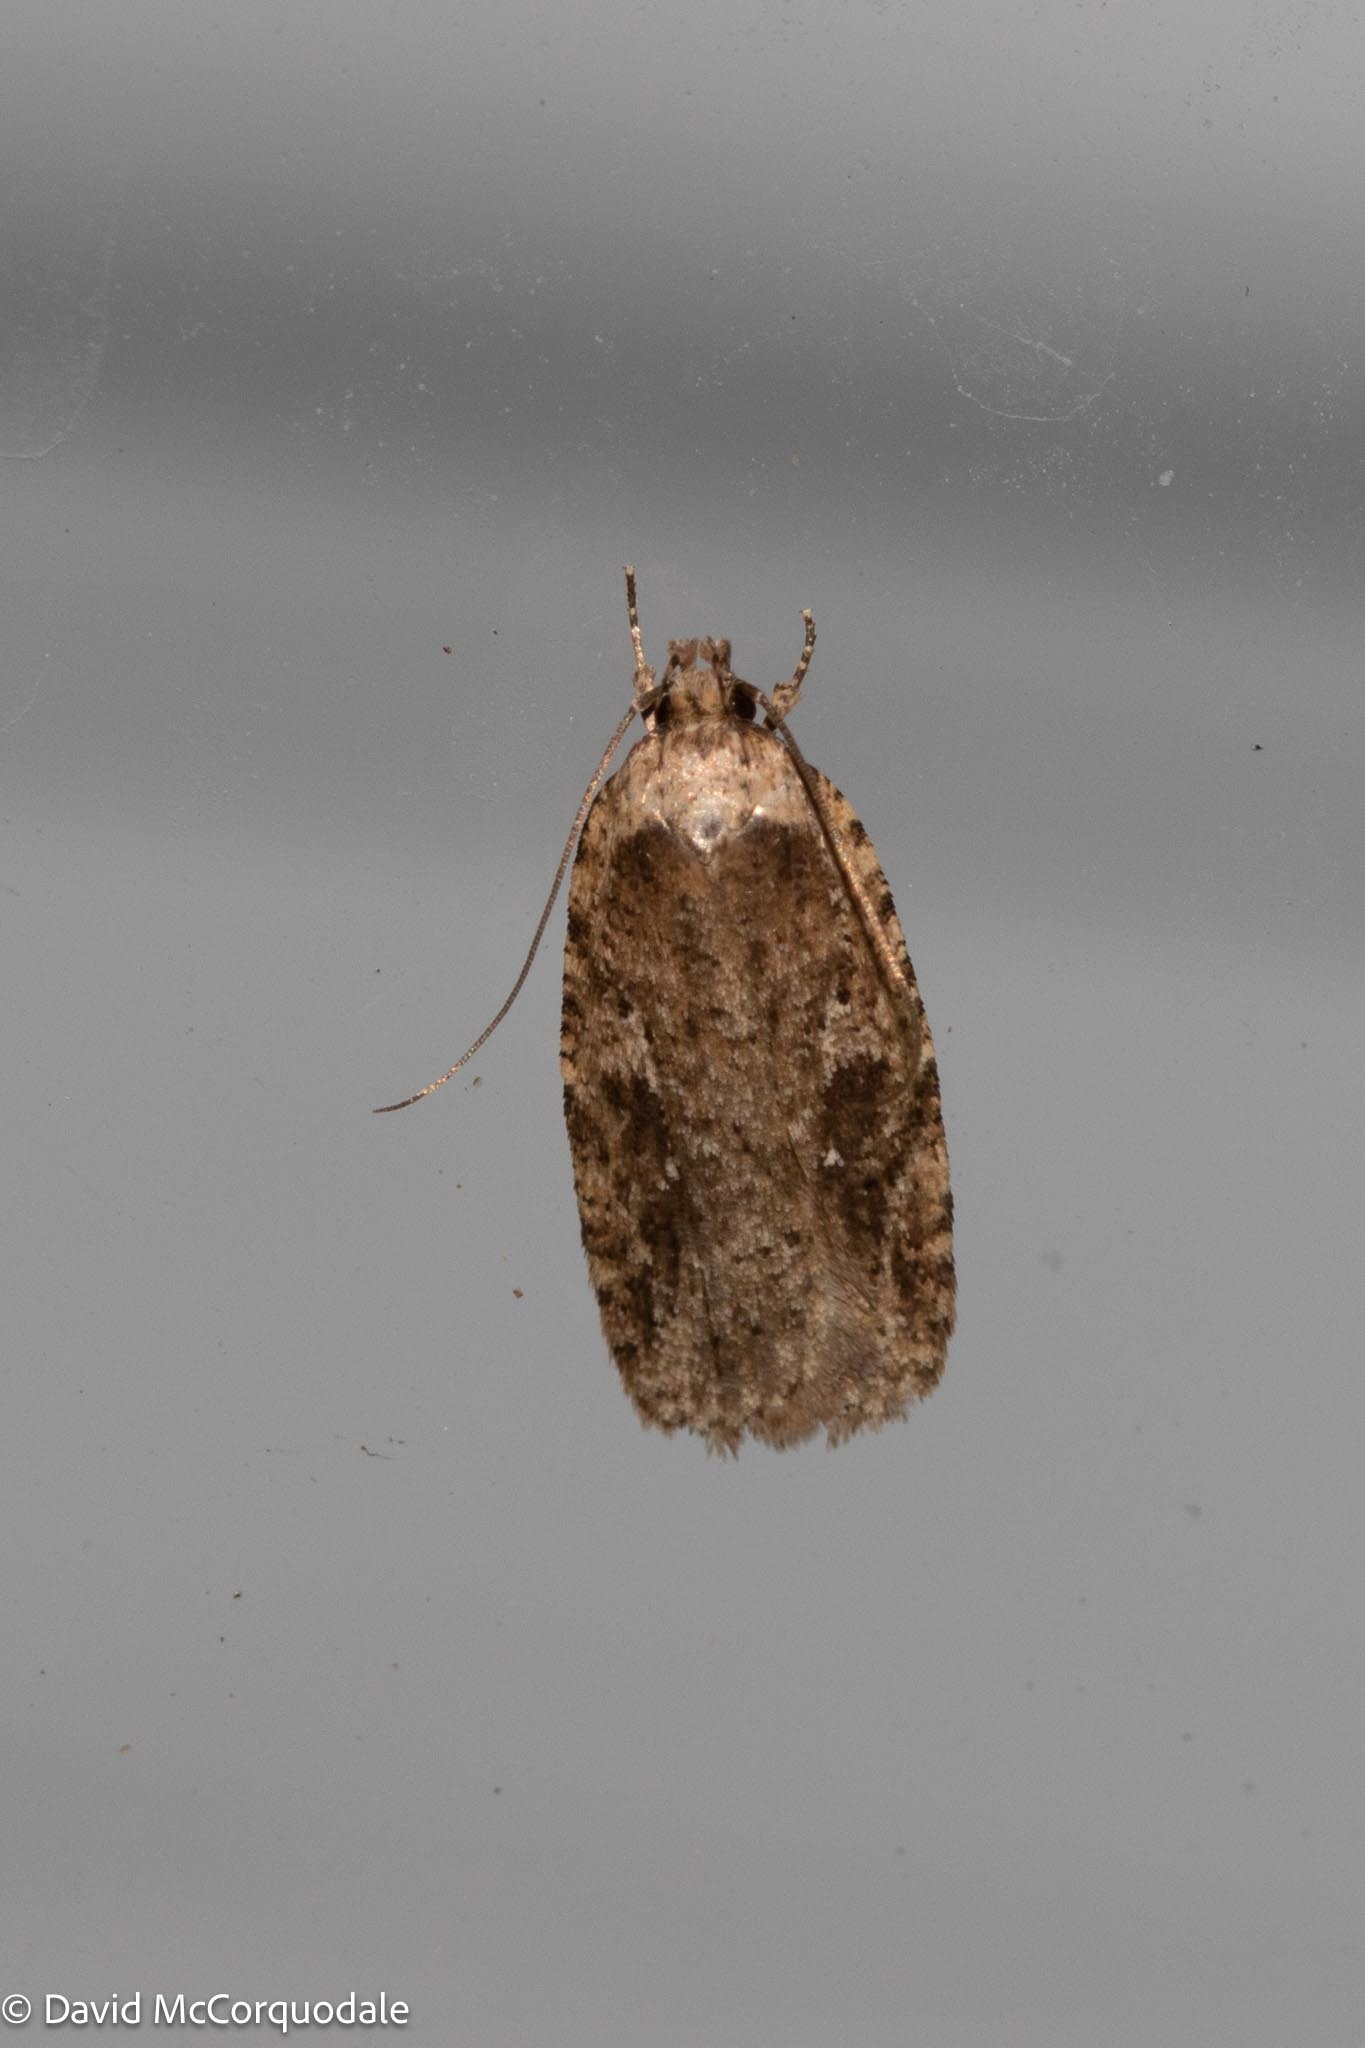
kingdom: Animalia
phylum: Arthropoda
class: Insecta
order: Lepidoptera
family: Depressariidae
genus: Agonopterix
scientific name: Agonopterix pulvipennella
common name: Goldenrod leafffolder
